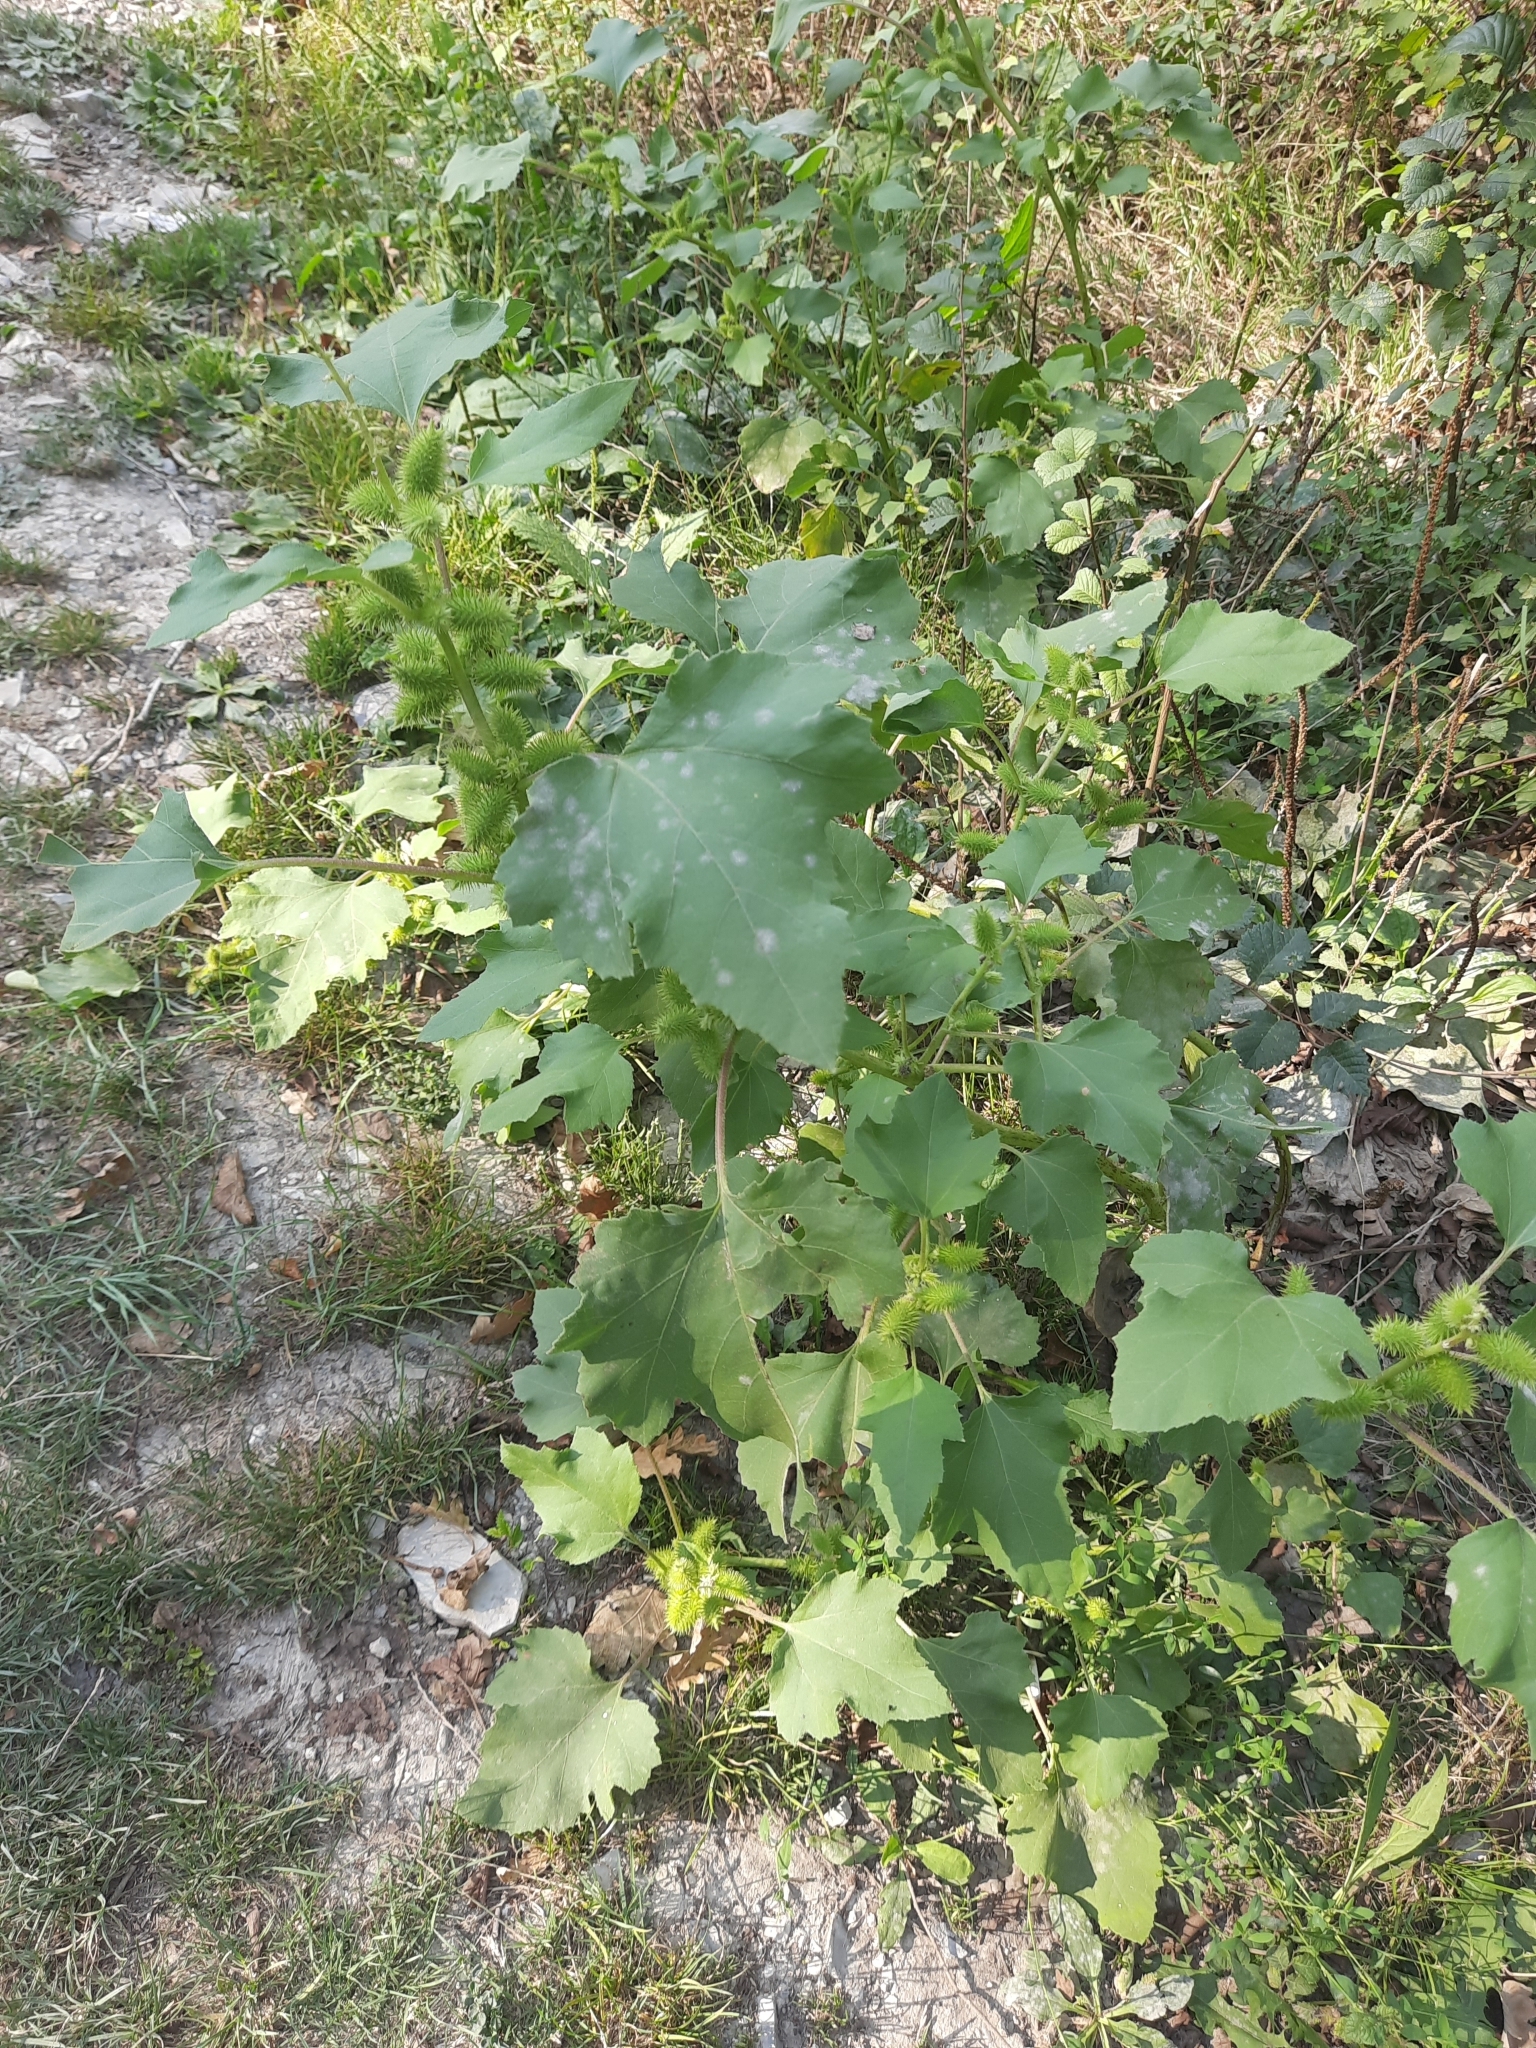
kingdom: Plantae
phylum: Tracheophyta
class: Magnoliopsida
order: Asterales
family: Asteraceae
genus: Xanthium
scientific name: Xanthium orientale
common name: Californian burr
